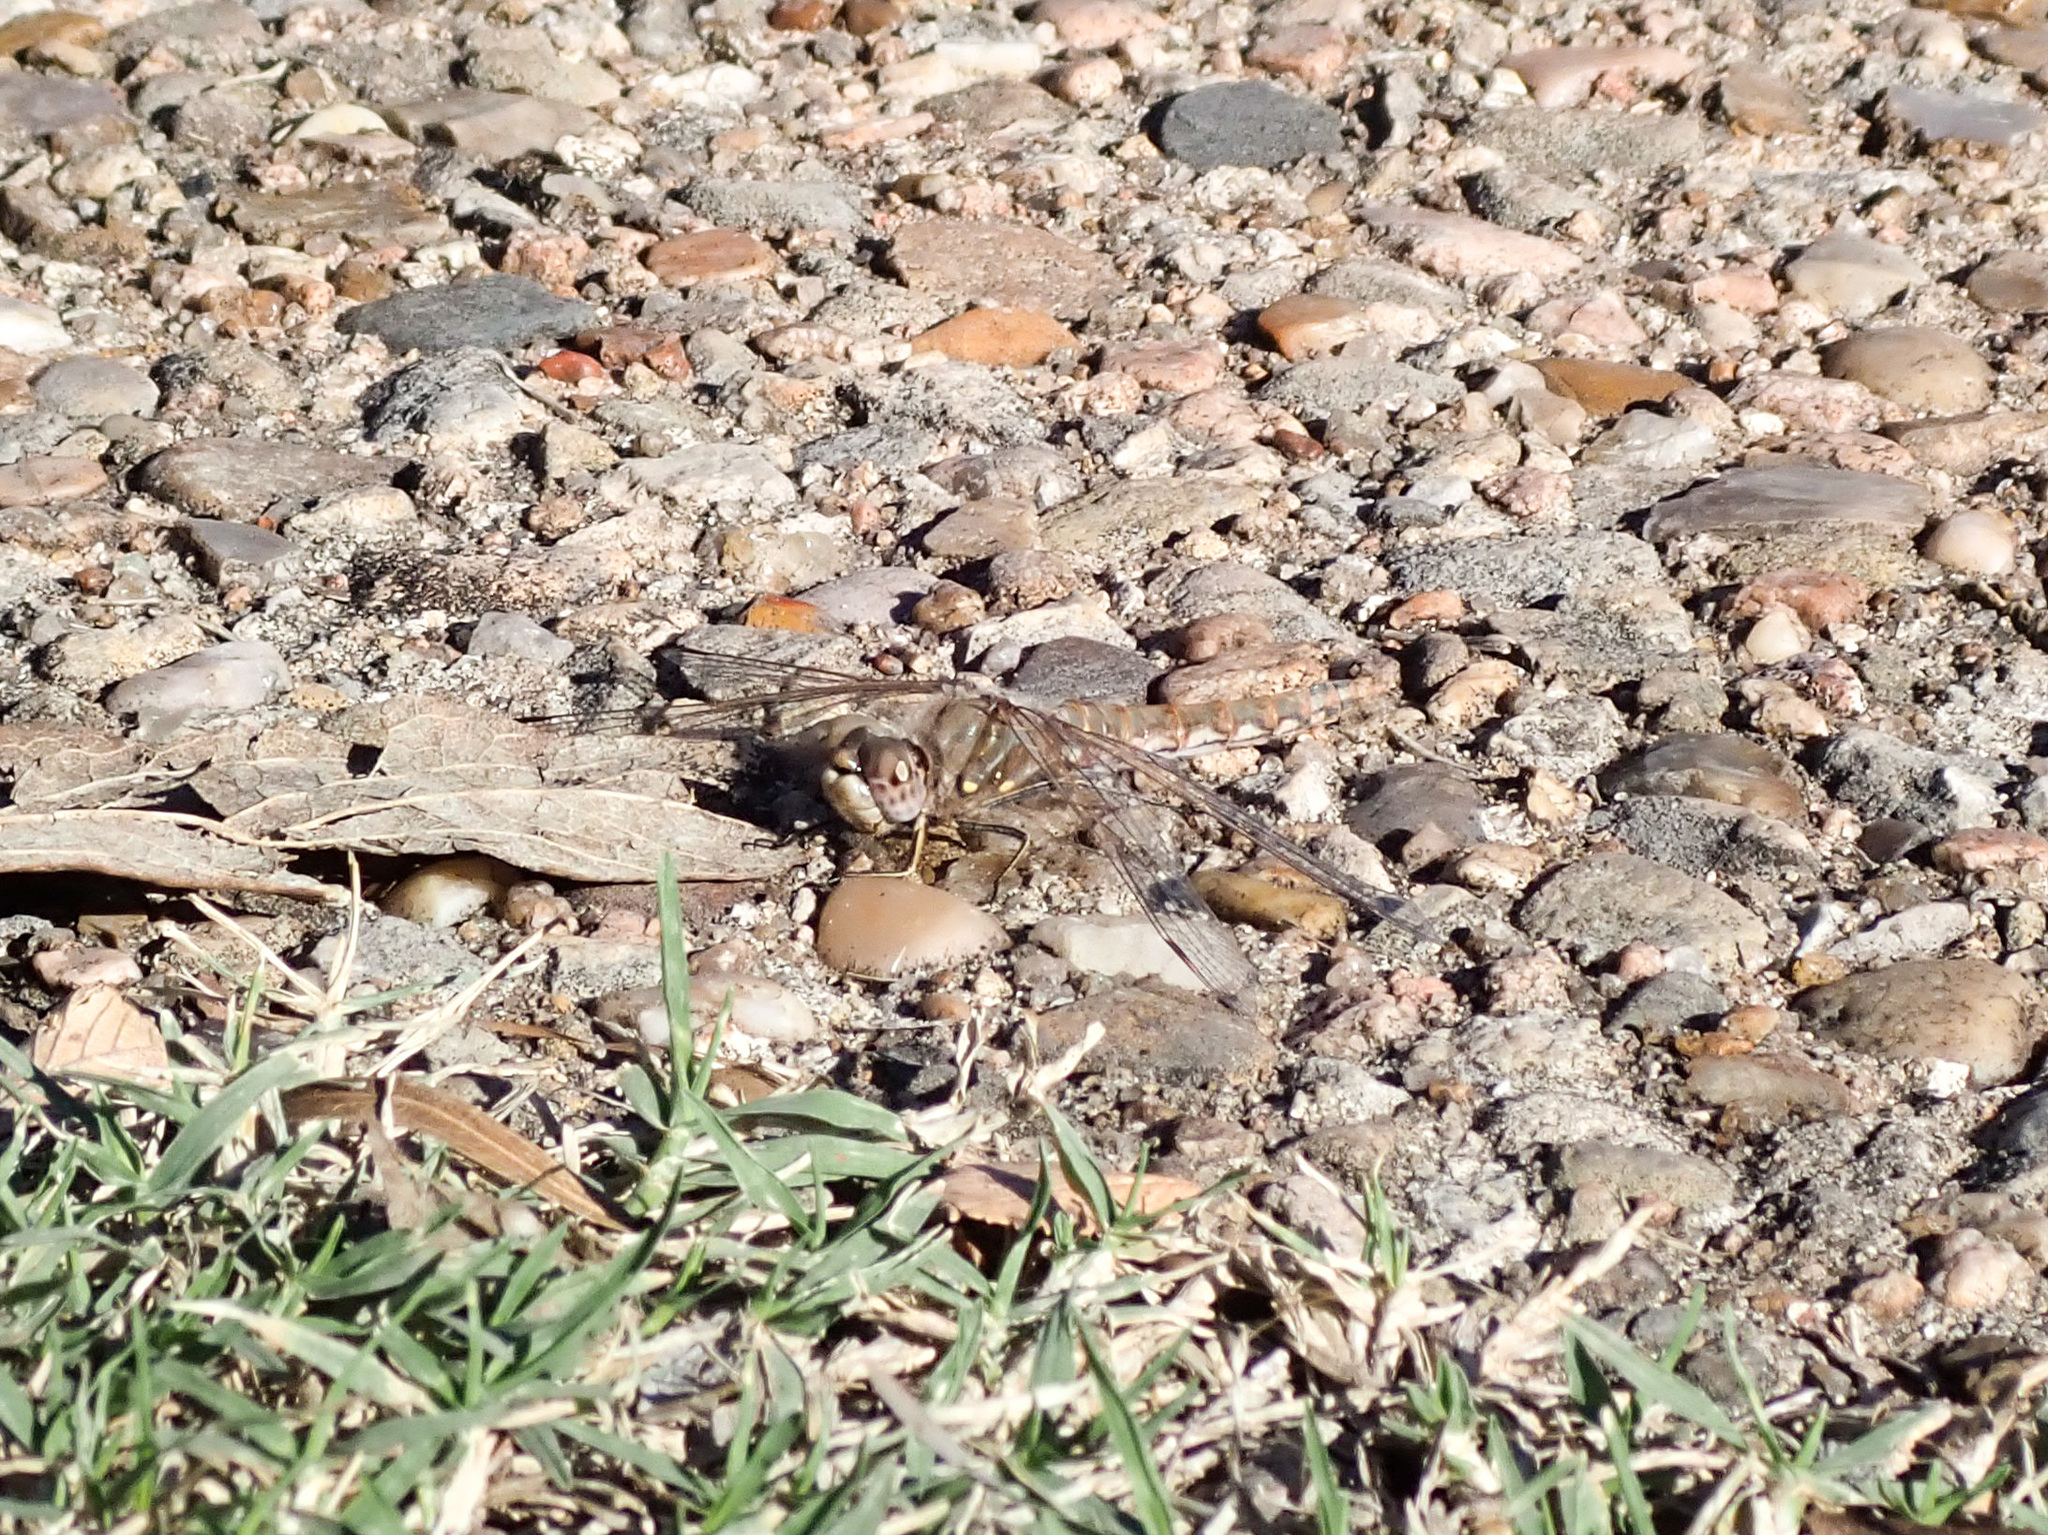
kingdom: Animalia
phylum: Arthropoda
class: Insecta
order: Odonata
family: Libellulidae
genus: Sympetrum
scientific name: Sympetrum corruptum
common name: Variegated meadowhawk
